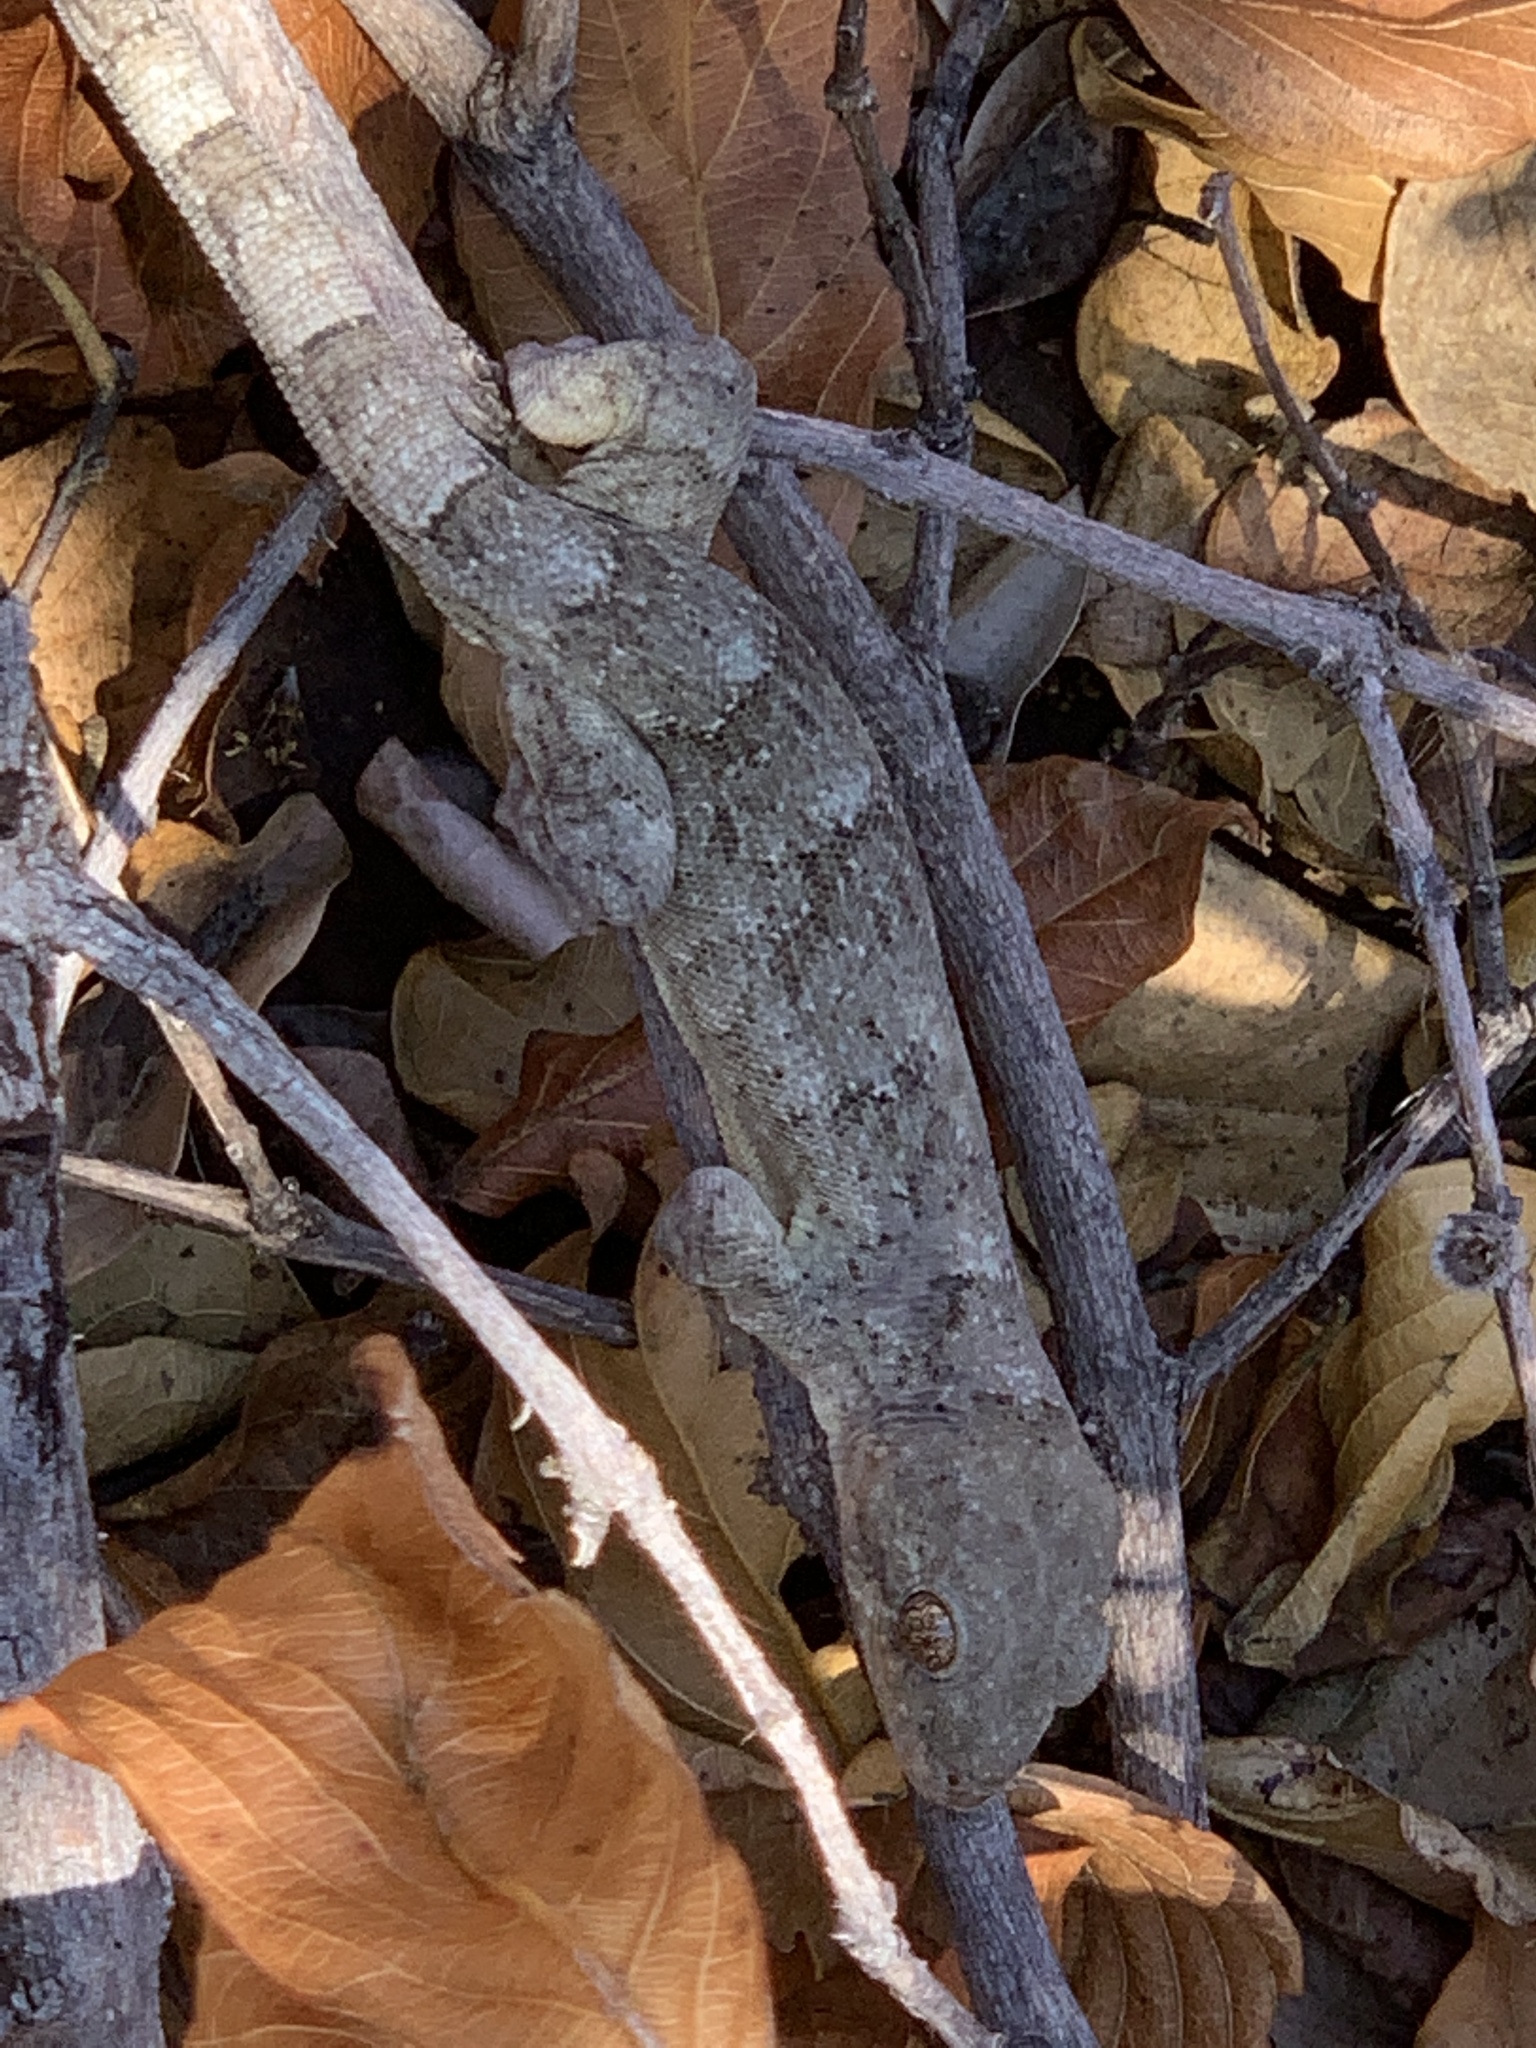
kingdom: Animalia
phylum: Chordata
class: Squamata
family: Gekkonidae
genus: Homopholis
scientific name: Homopholis walbergii
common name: Wahlberg’s velvet gecko
